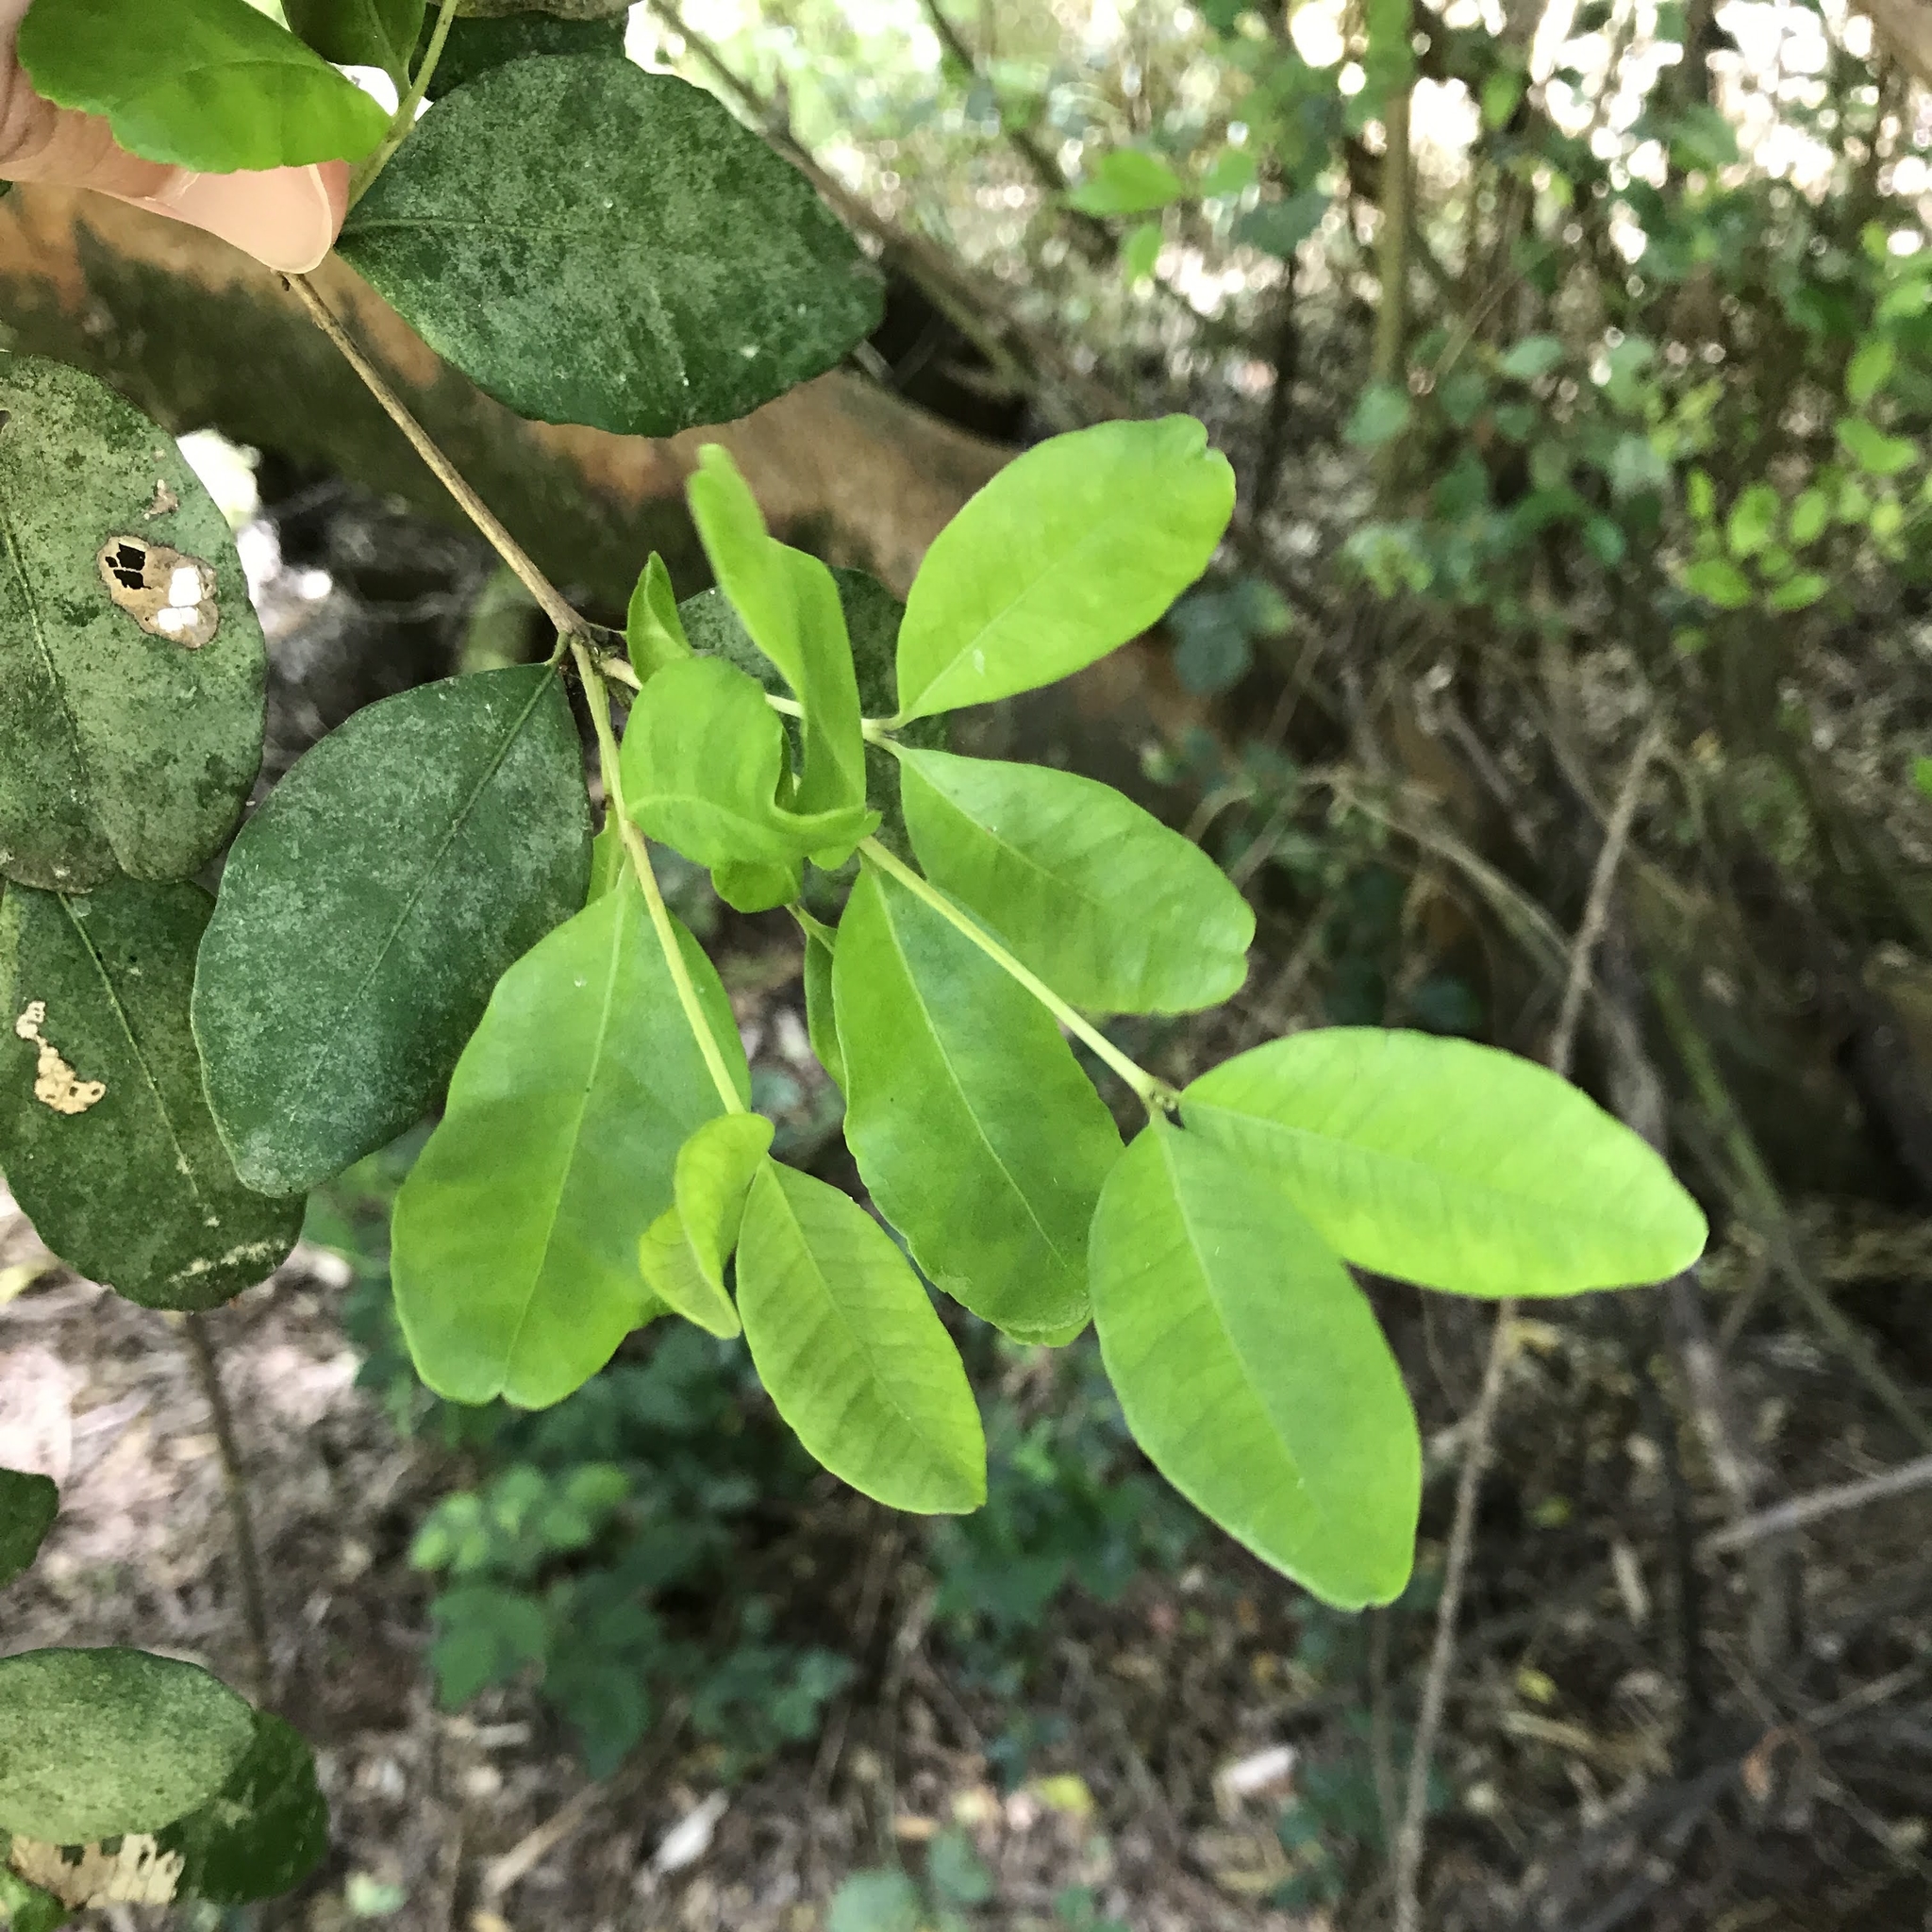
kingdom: Plantae
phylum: Tracheophyta
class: Magnoliopsida
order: Myrtales
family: Myrtaceae
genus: Blepharocalyx
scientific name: Blepharocalyx cruckshanksii
